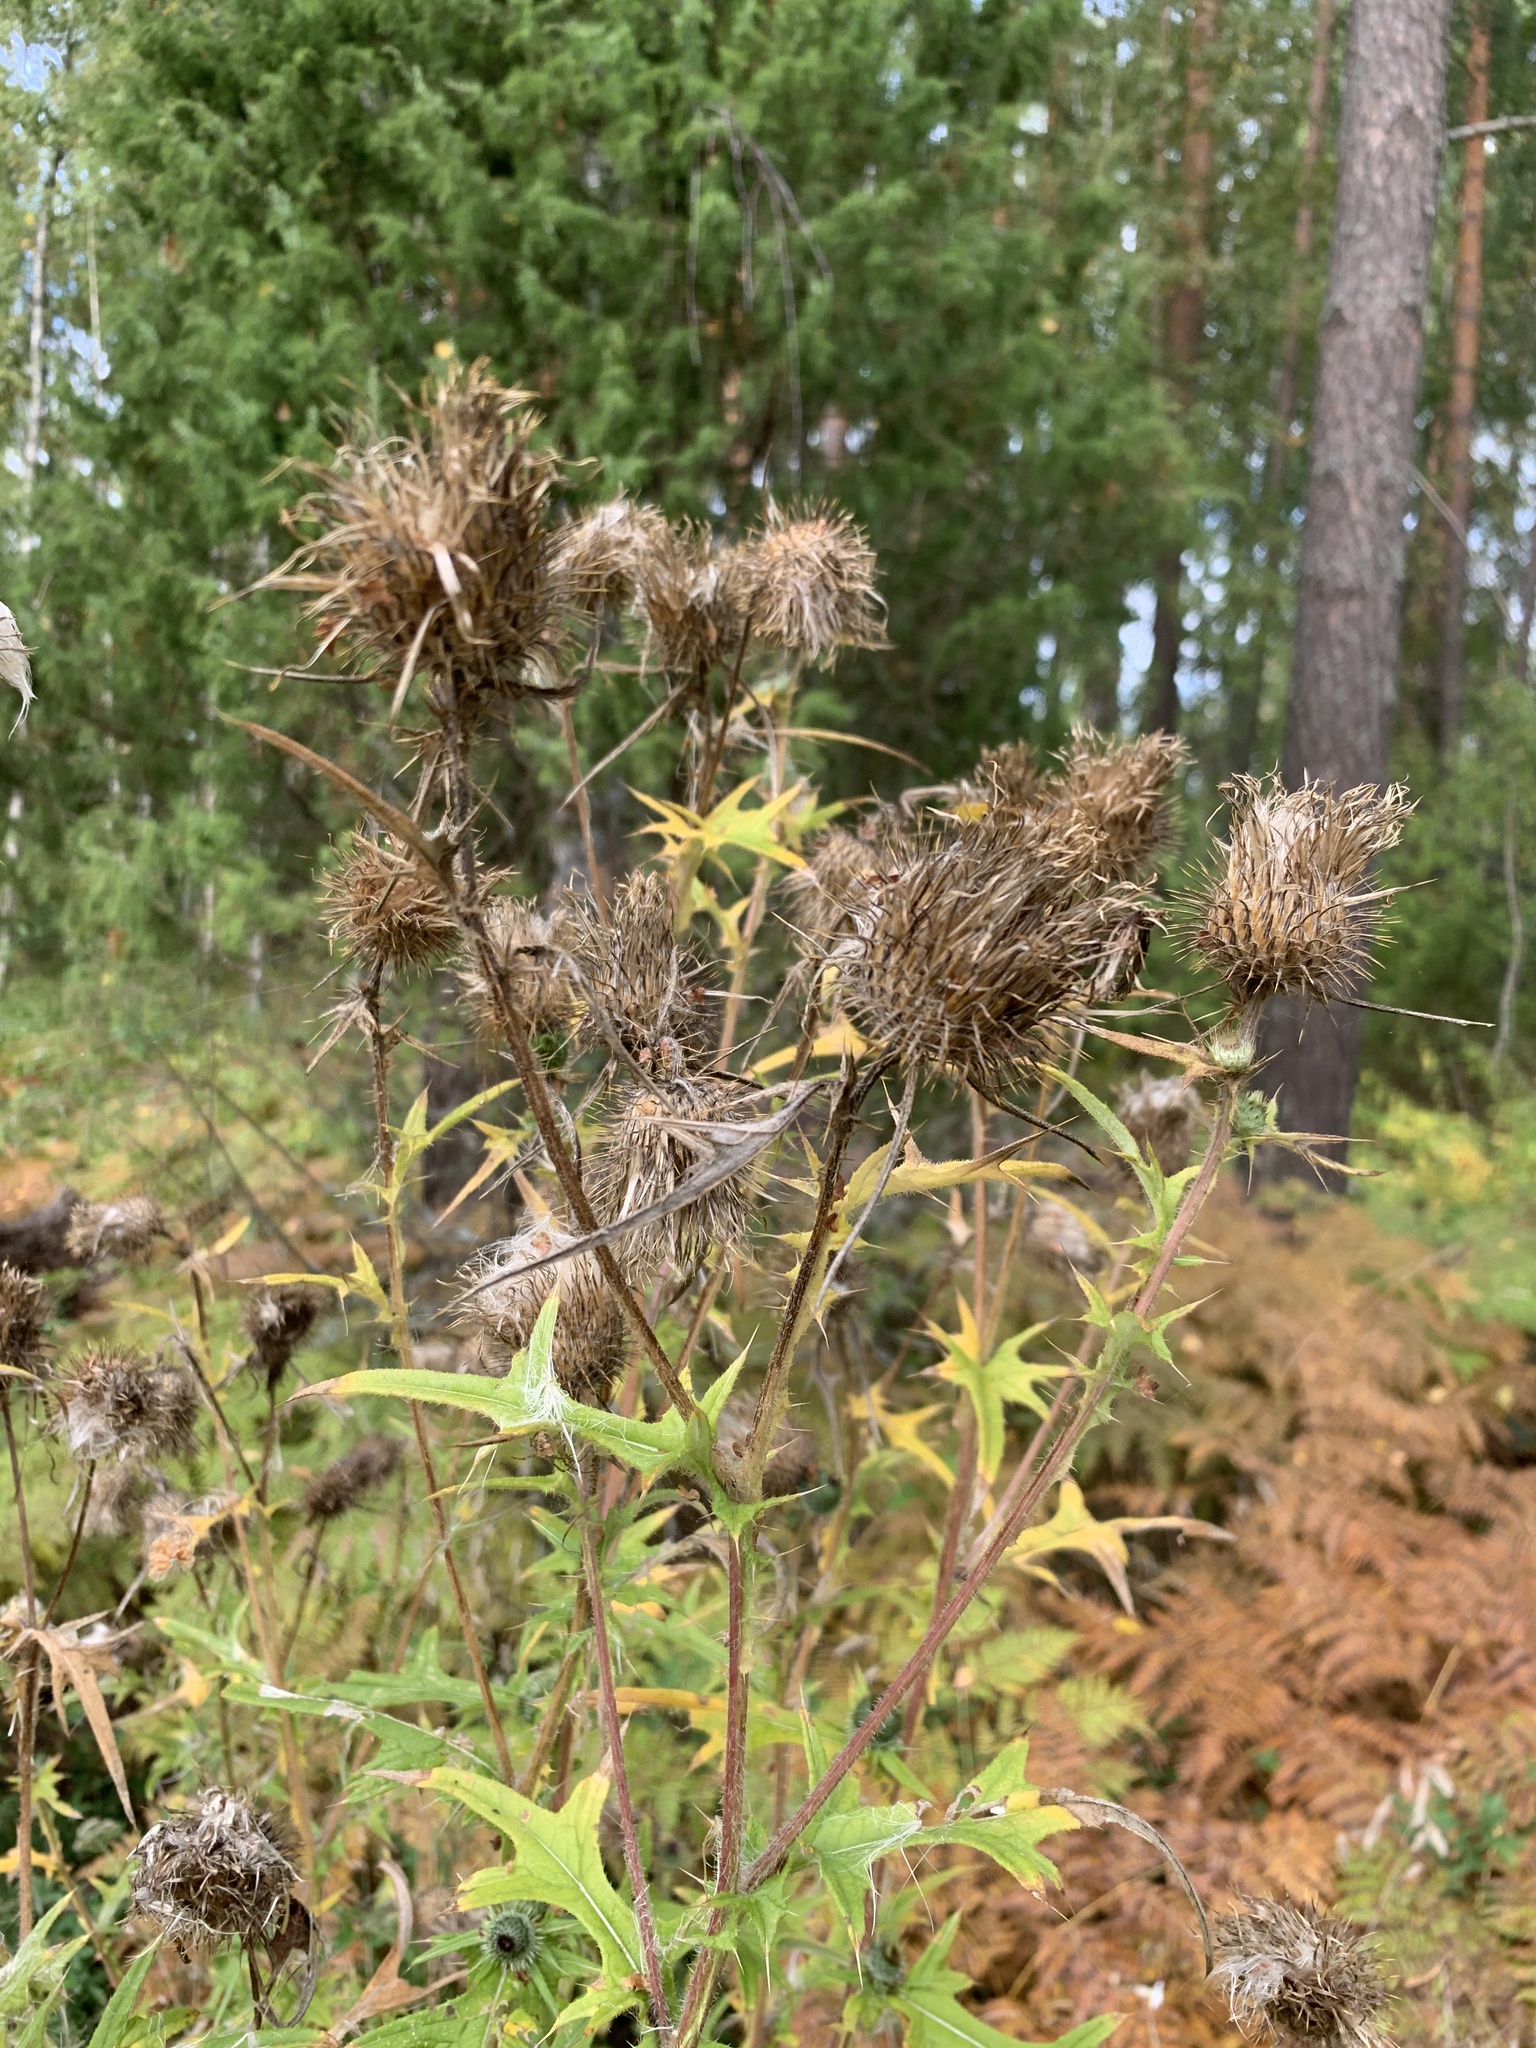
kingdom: Plantae
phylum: Tracheophyta
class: Magnoliopsida
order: Asterales
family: Asteraceae
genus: Cirsium
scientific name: Cirsium vulgare
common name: Bull thistle
